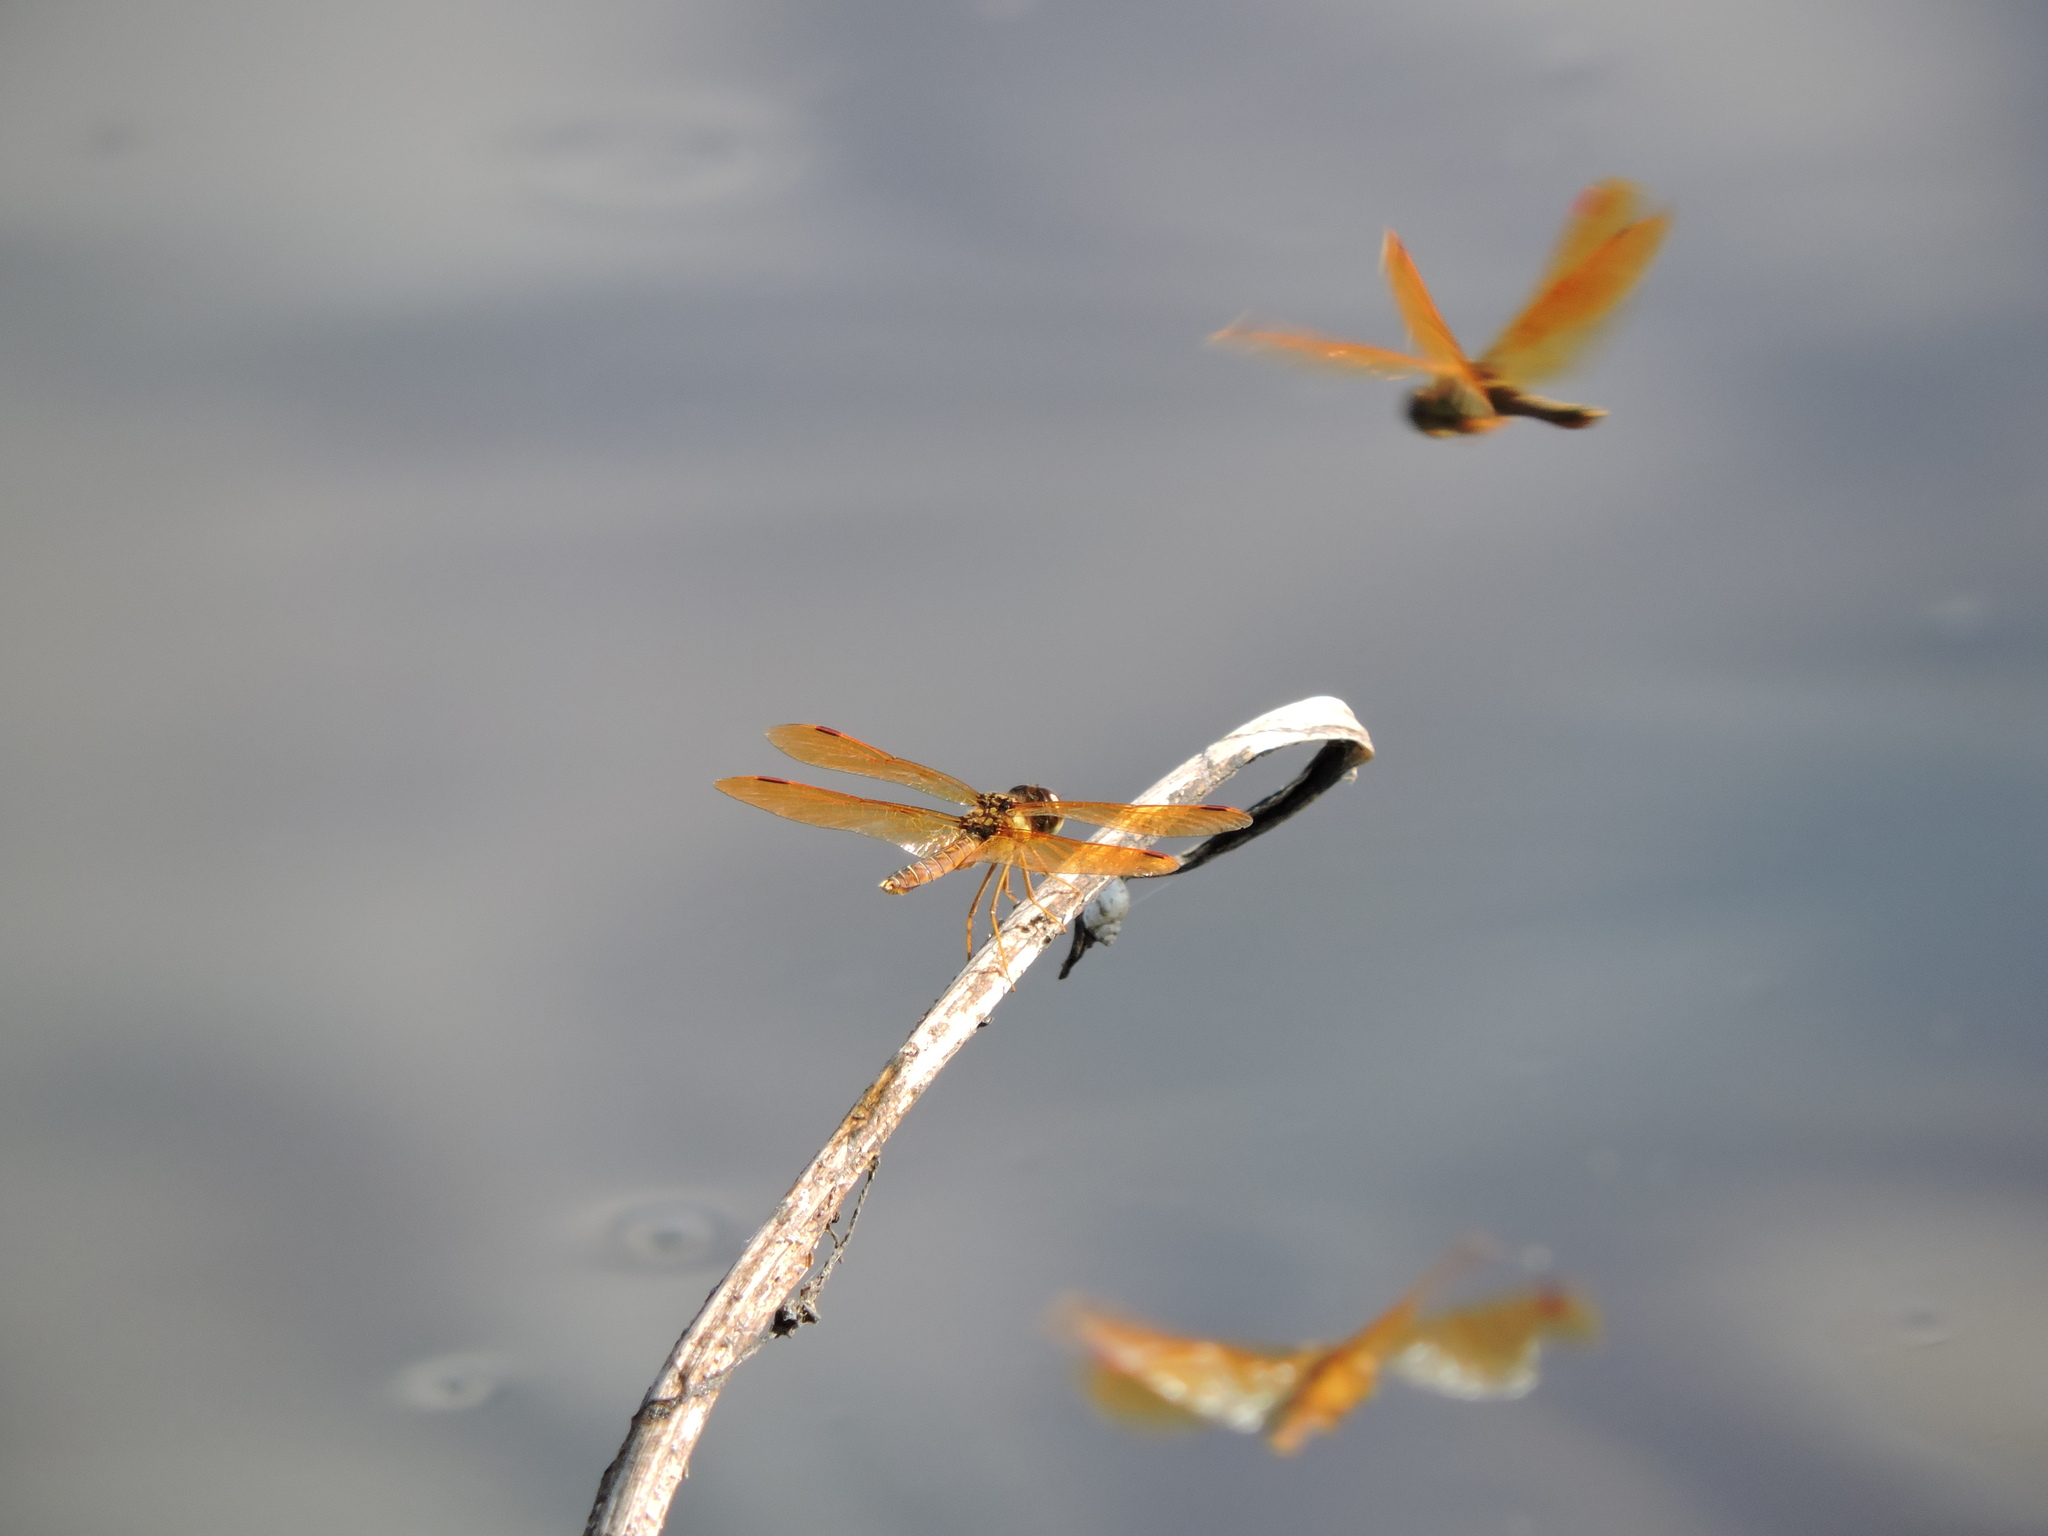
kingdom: Animalia
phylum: Arthropoda
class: Insecta
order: Odonata
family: Libellulidae
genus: Perithemis
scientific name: Perithemis tenera
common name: Eastern amberwing
